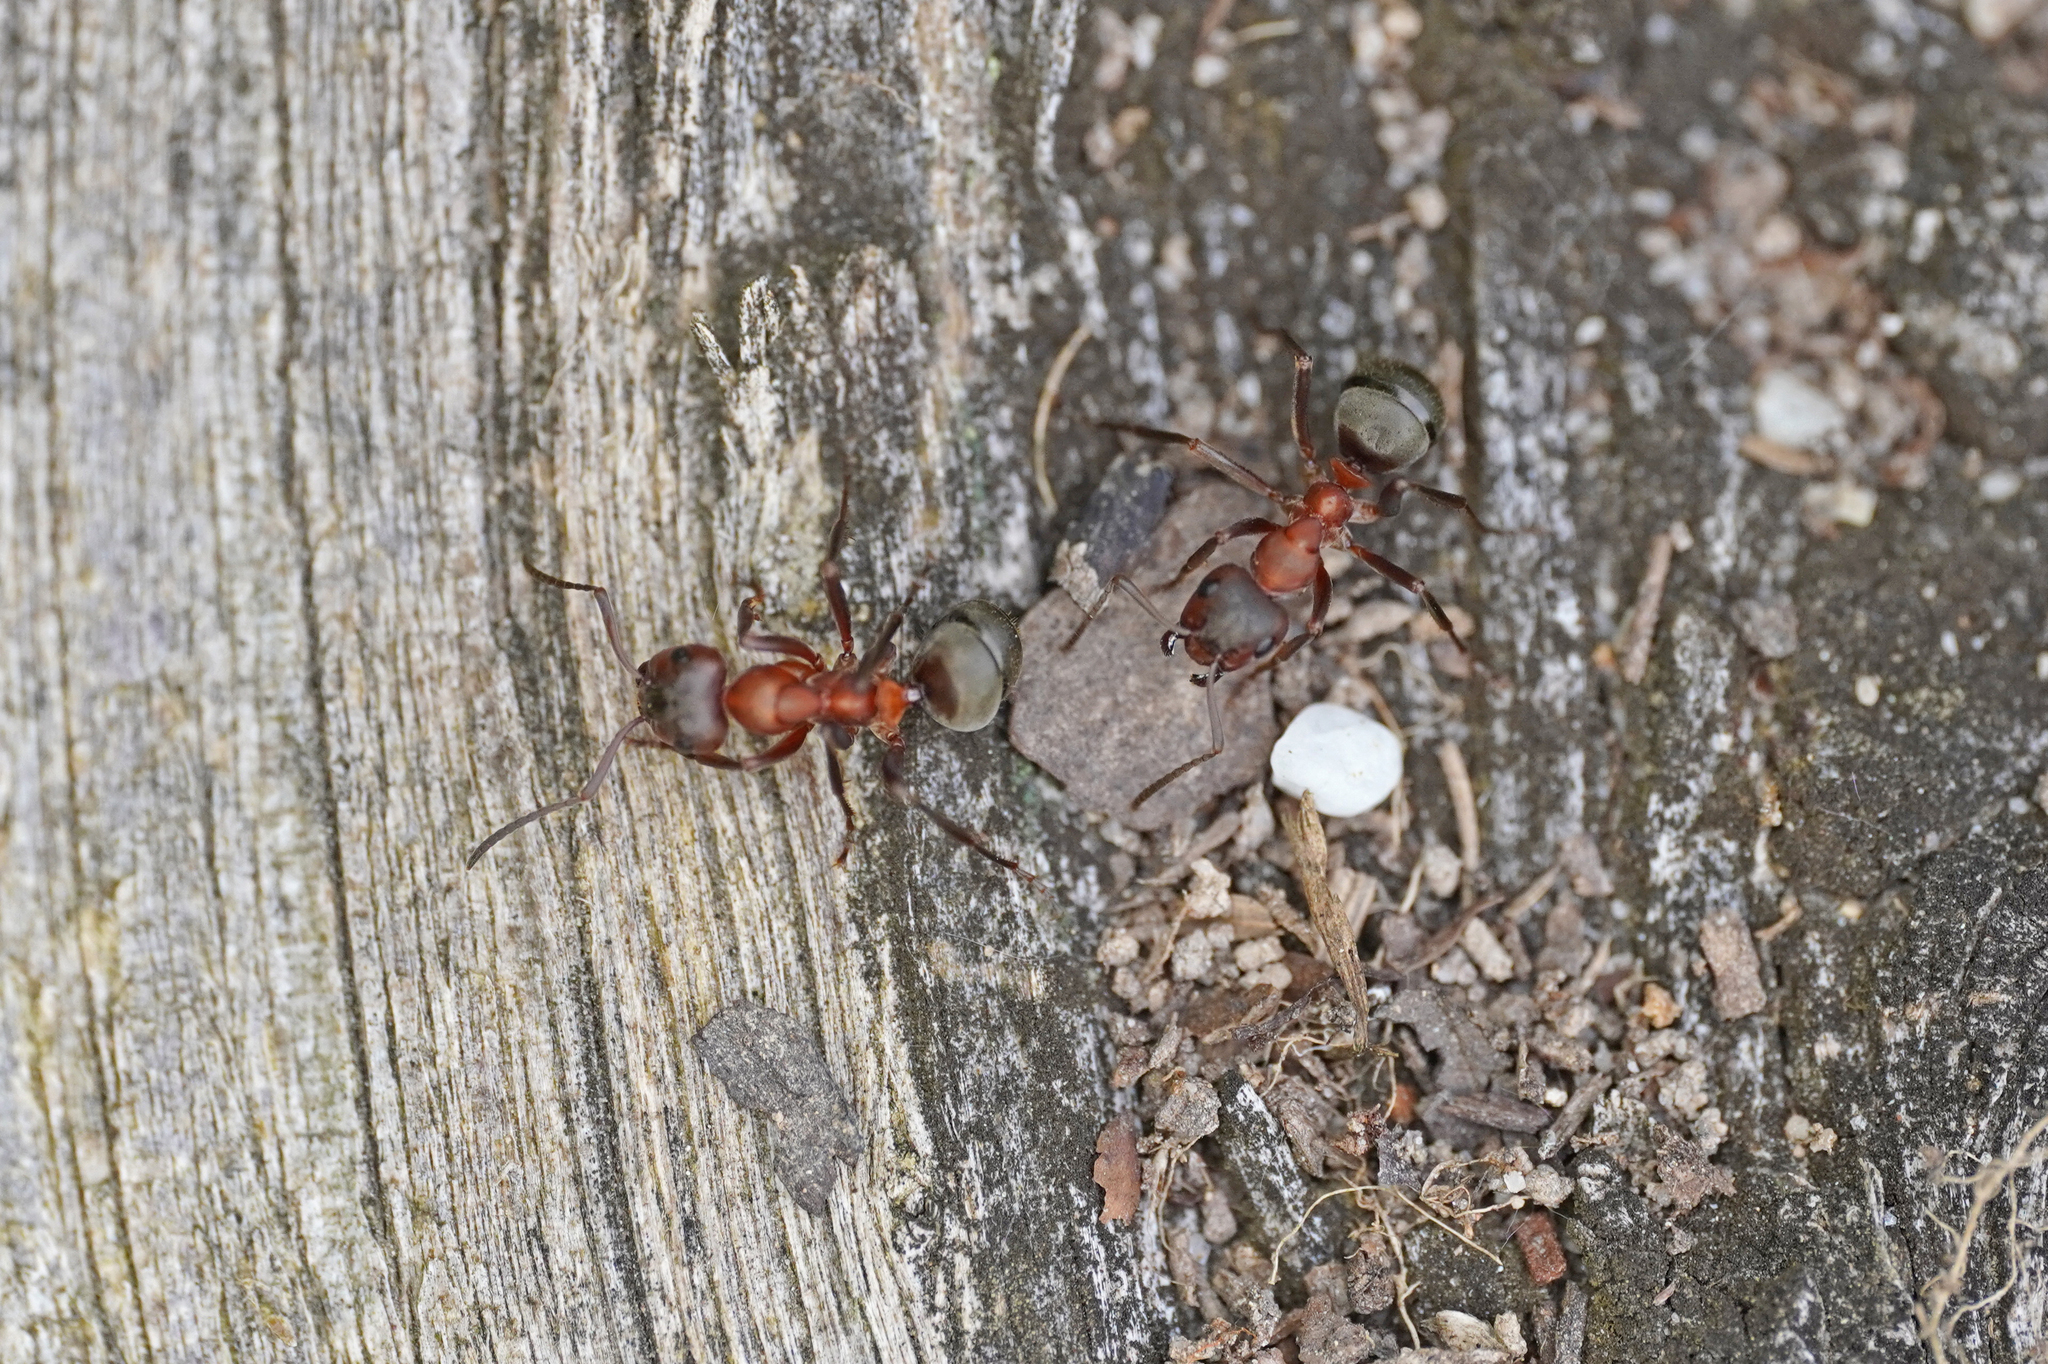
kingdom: Animalia
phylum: Arthropoda
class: Insecta
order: Hymenoptera
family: Formicidae
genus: Formica
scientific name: Formica sanguinea
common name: Blood-red ant
